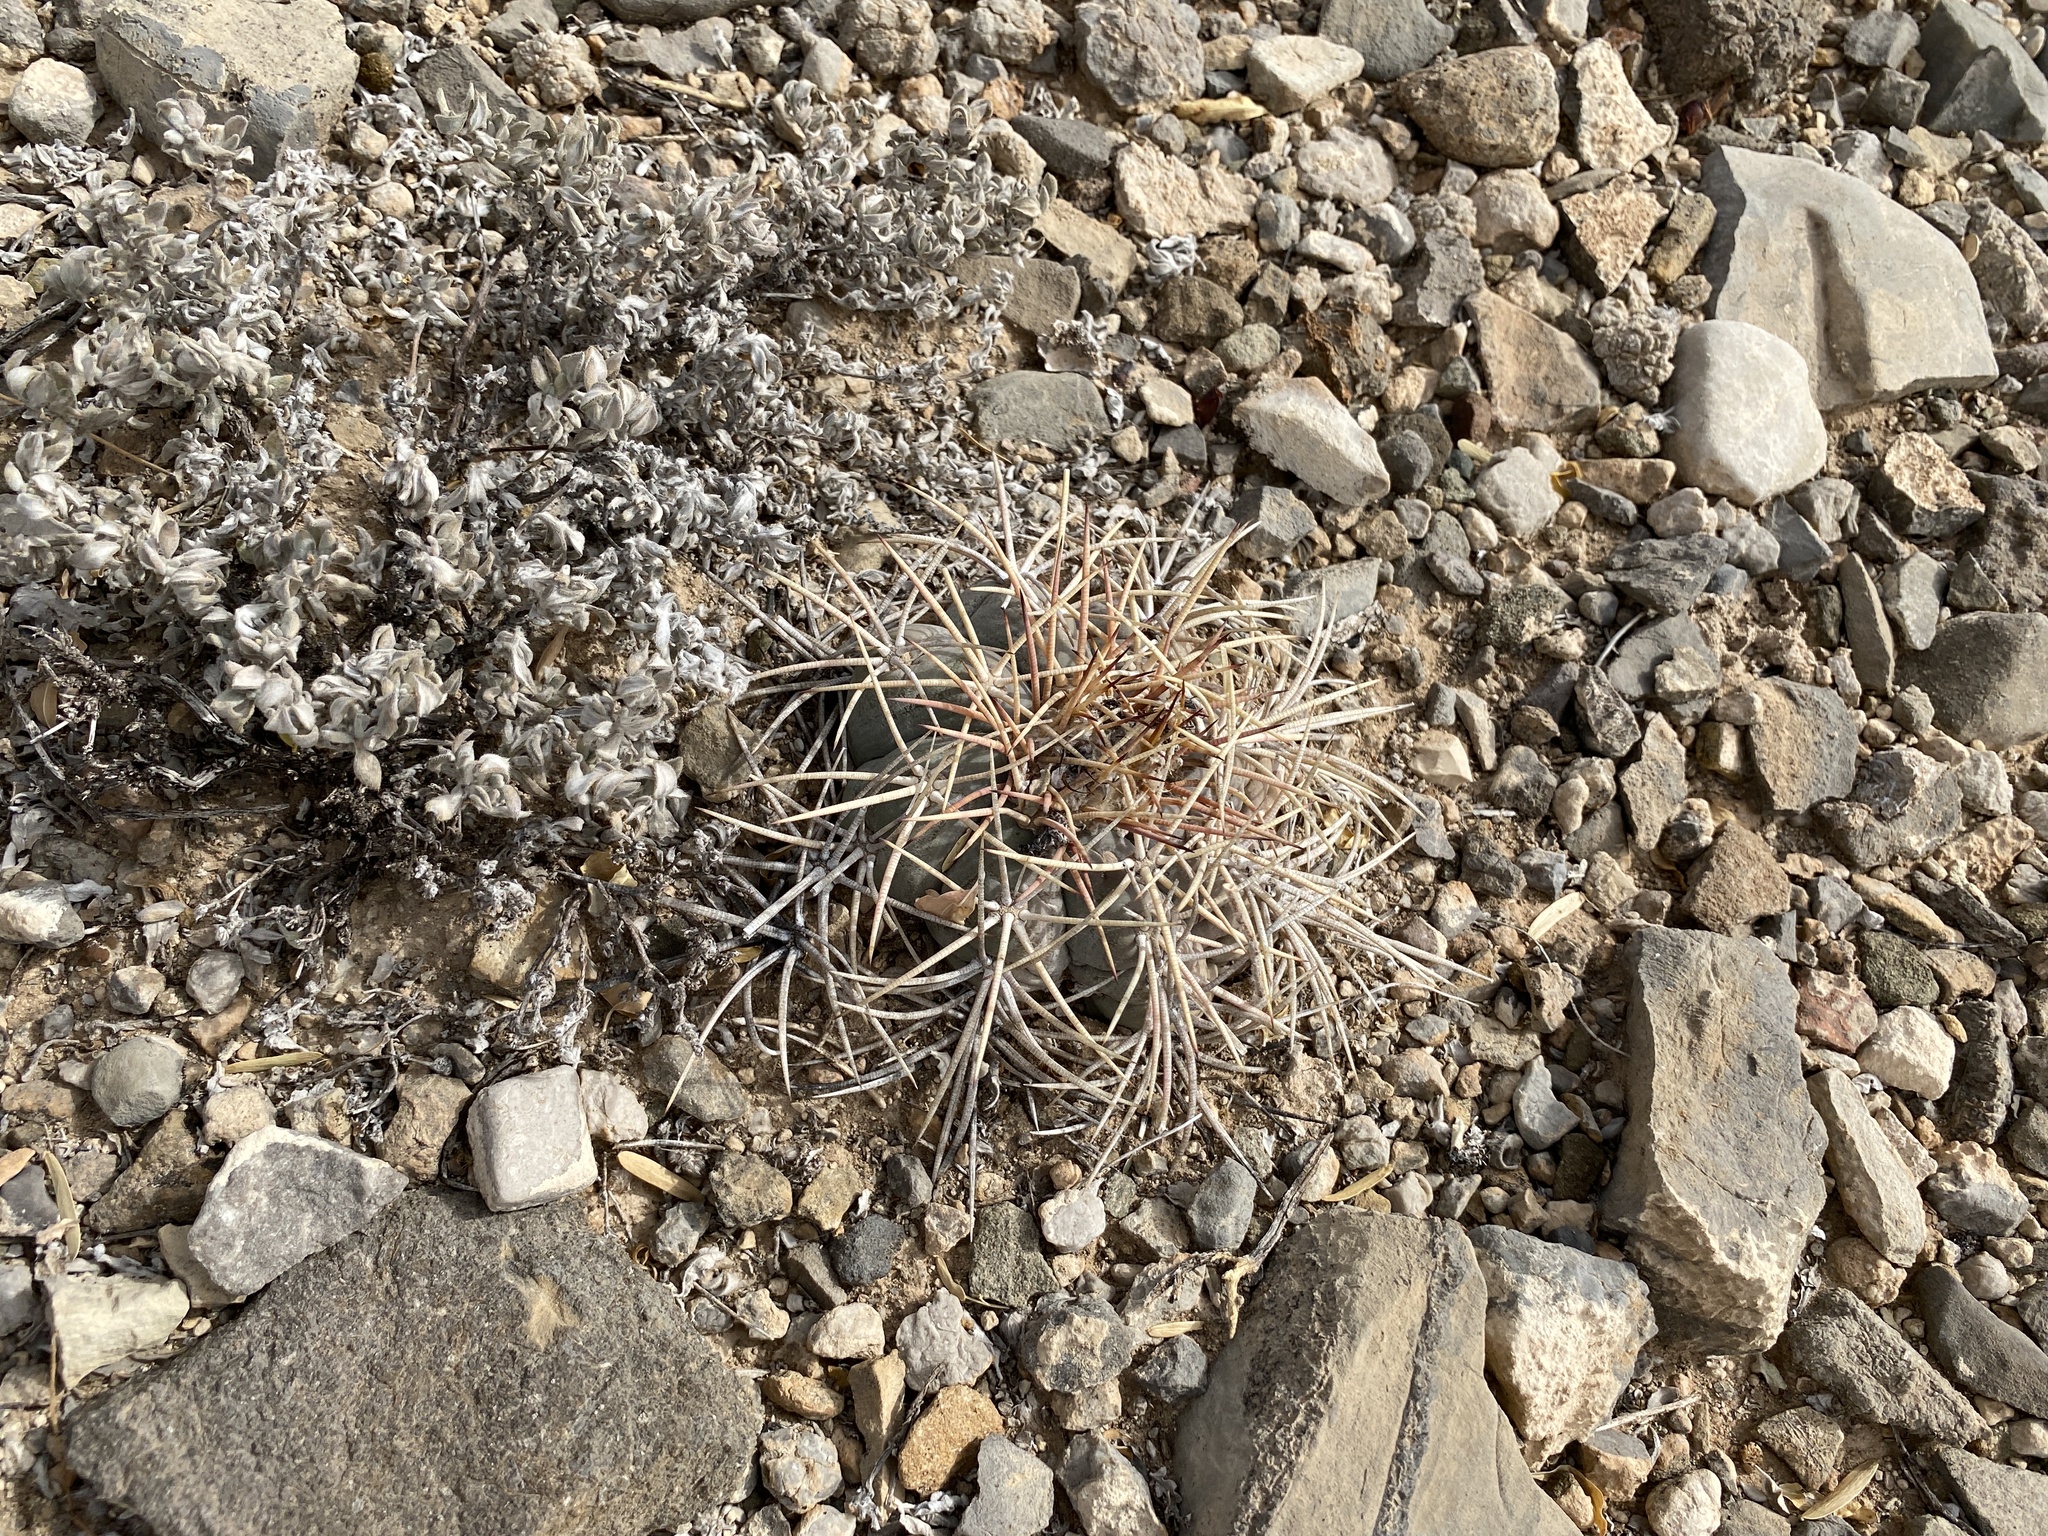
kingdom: Plantae
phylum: Tracheophyta
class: Magnoliopsida
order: Caryophyllales
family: Cactaceae
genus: Echinocactus
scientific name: Echinocactus horizonthalonius
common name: Devilshead
